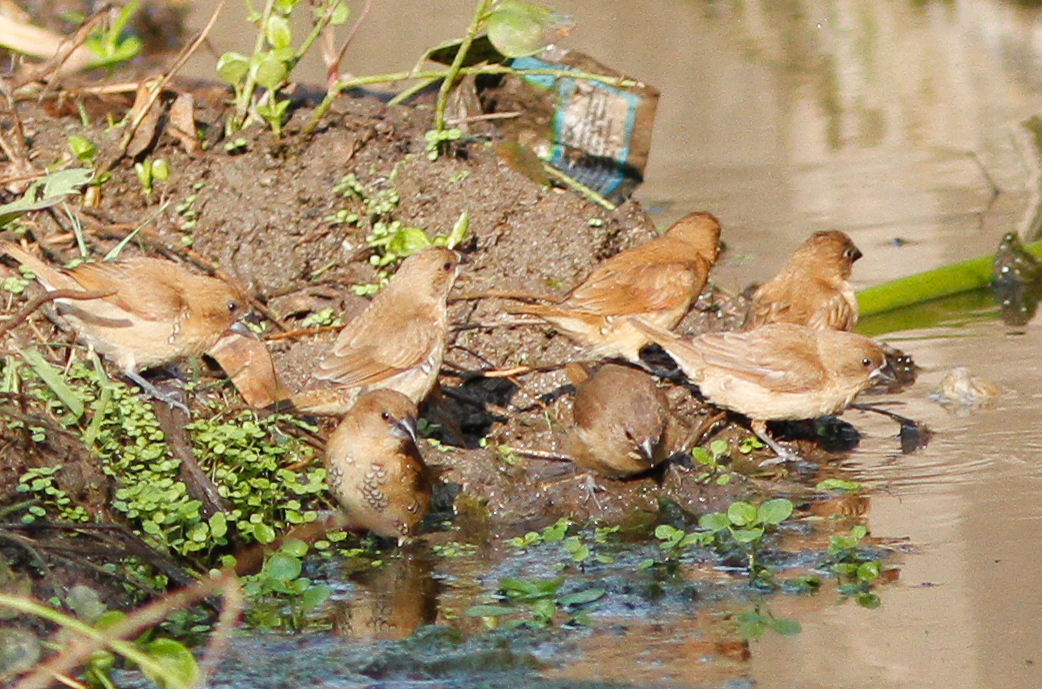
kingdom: Animalia
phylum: Chordata
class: Aves
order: Passeriformes
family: Estrildidae
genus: Lonchura
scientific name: Lonchura punctulata
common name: Scaly-breasted munia
